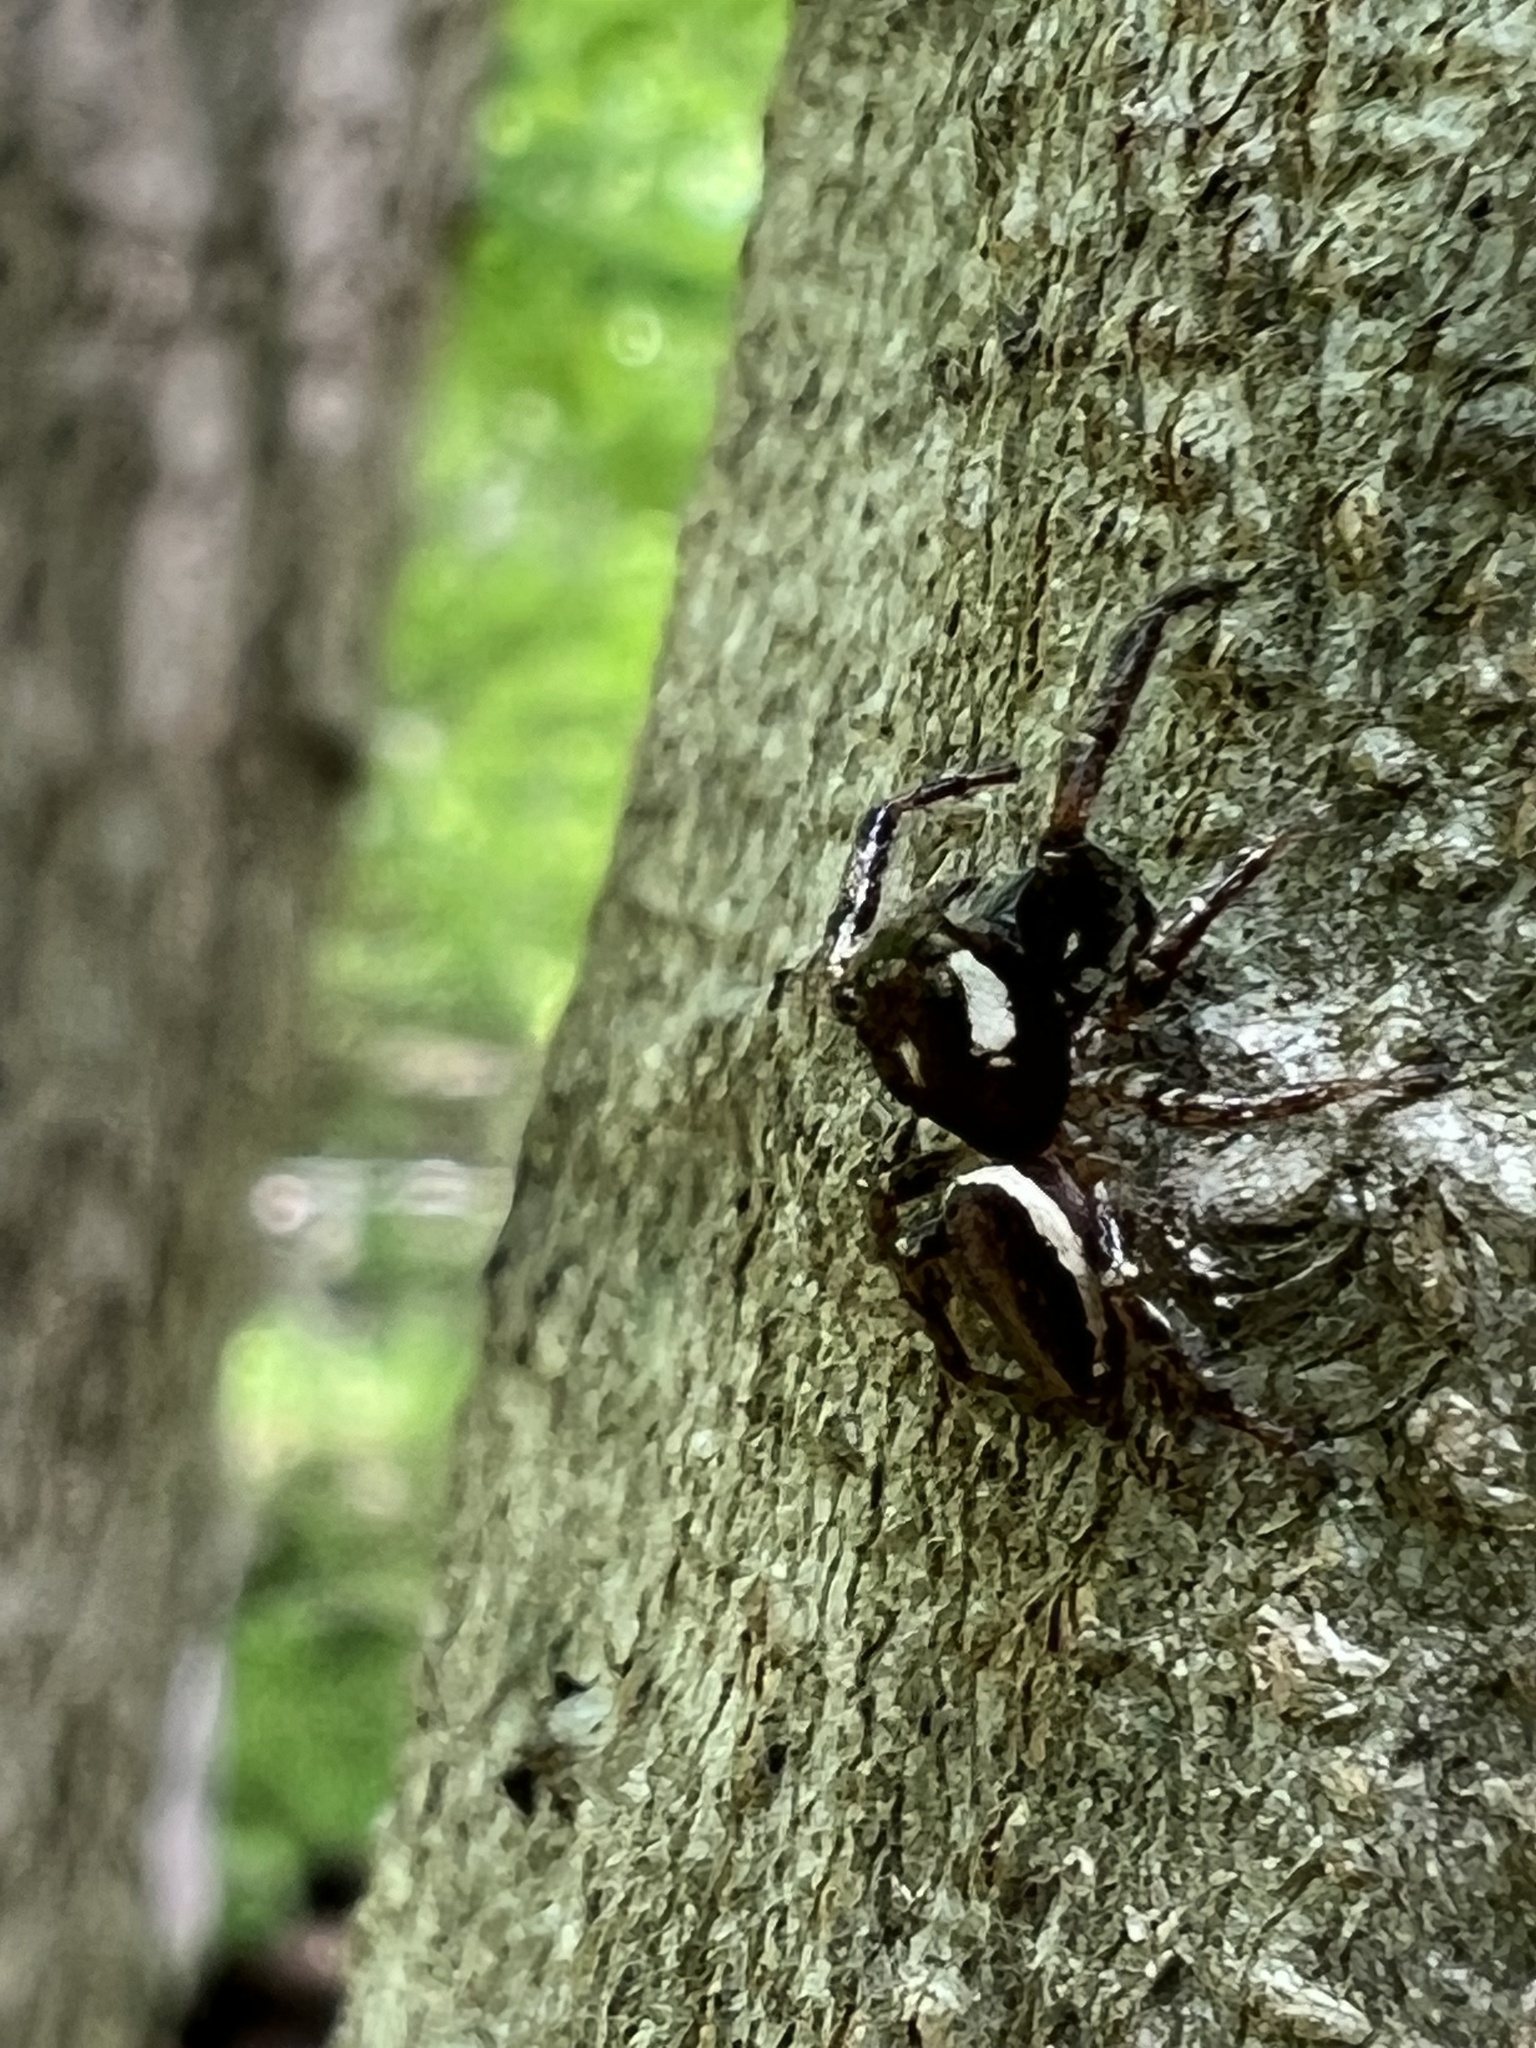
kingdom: Animalia
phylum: Arthropoda
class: Arachnida
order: Araneae
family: Salticidae
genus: Eris
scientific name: Eris militaris
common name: Bronze jumper
